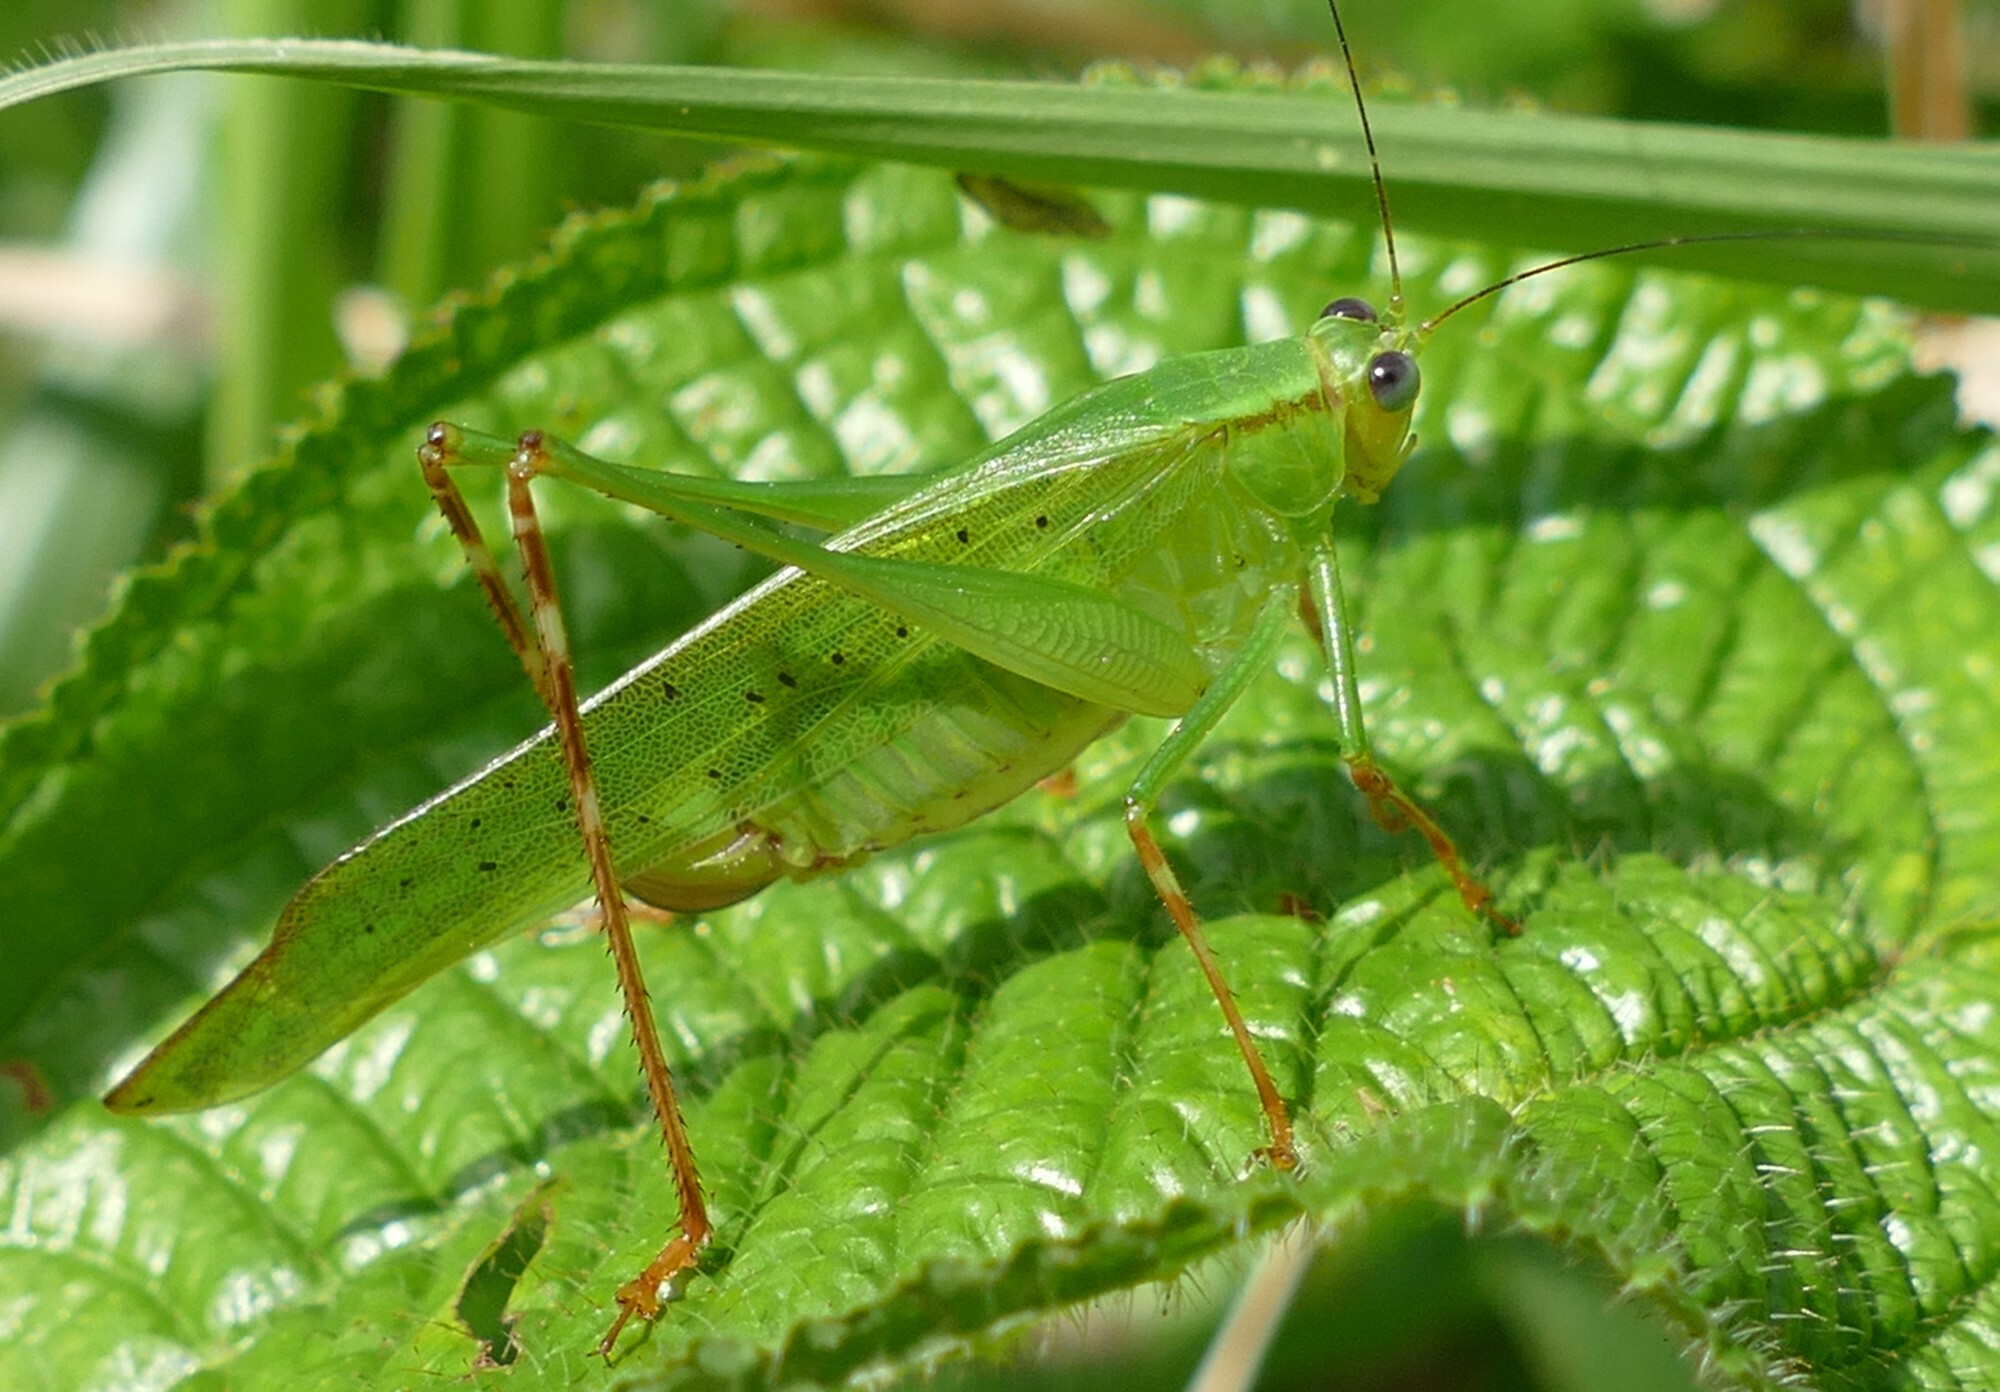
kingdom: Animalia
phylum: Arthropoda
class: Insecta
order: Orthoptera
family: Tettigoniidae
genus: Zenirella
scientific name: Zenirella punctata
